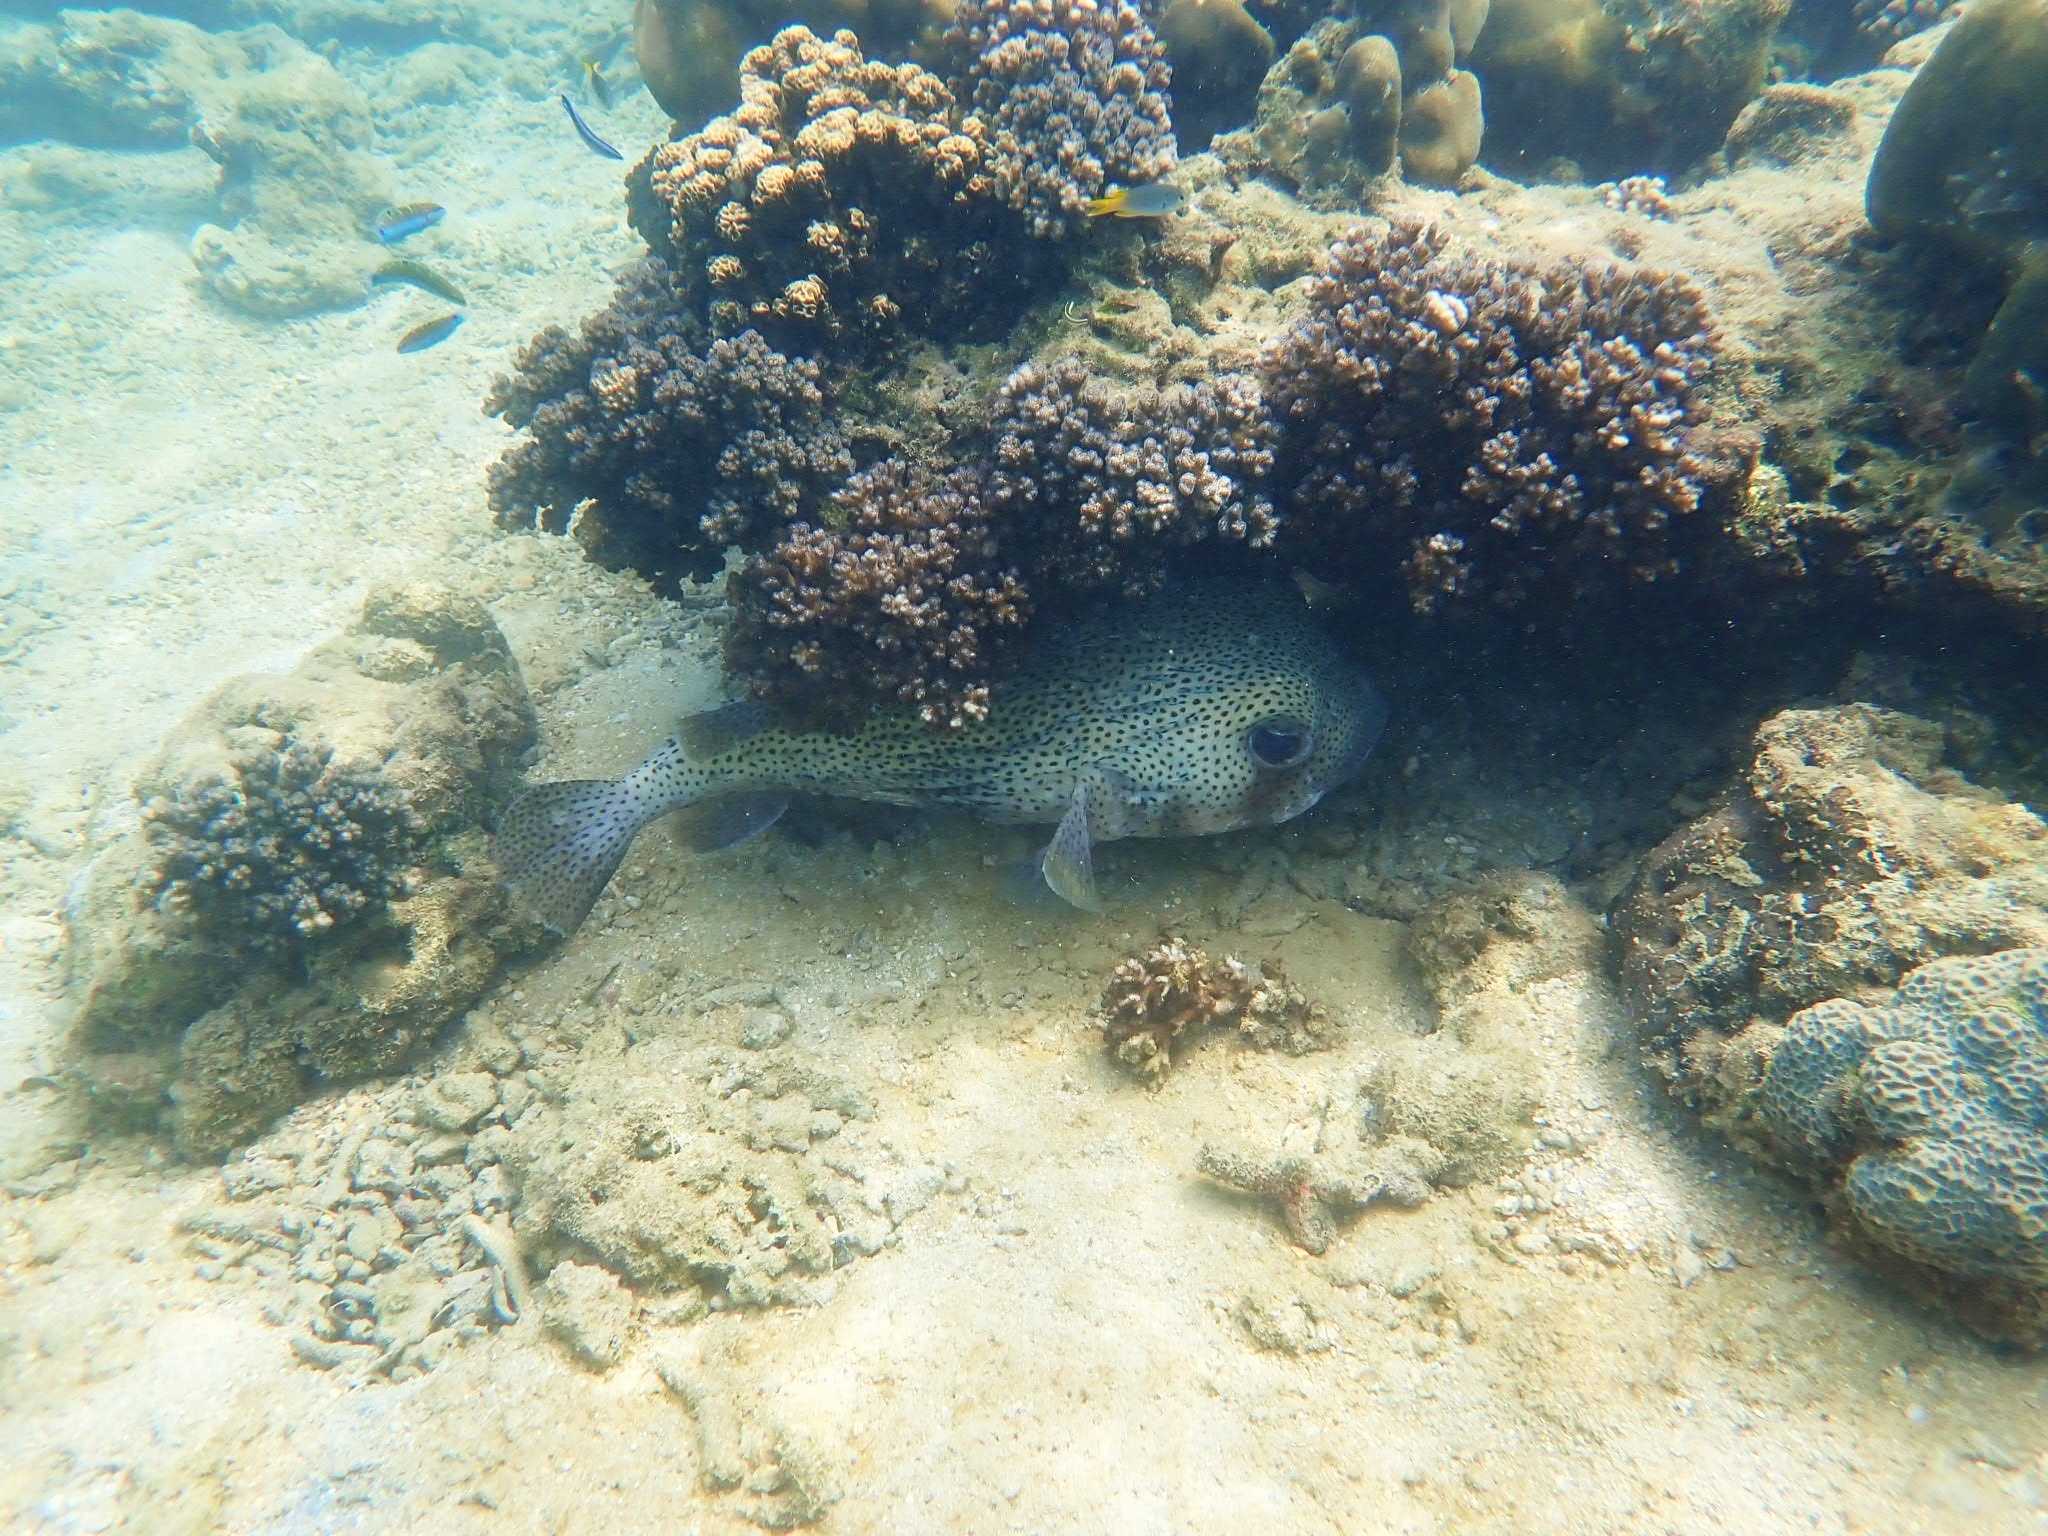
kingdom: Animalia
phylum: Chordata
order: Tetraodontiformes
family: Diodontidae
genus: Diodon
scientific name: Diodon hystrix
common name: Giant porcupinefish
